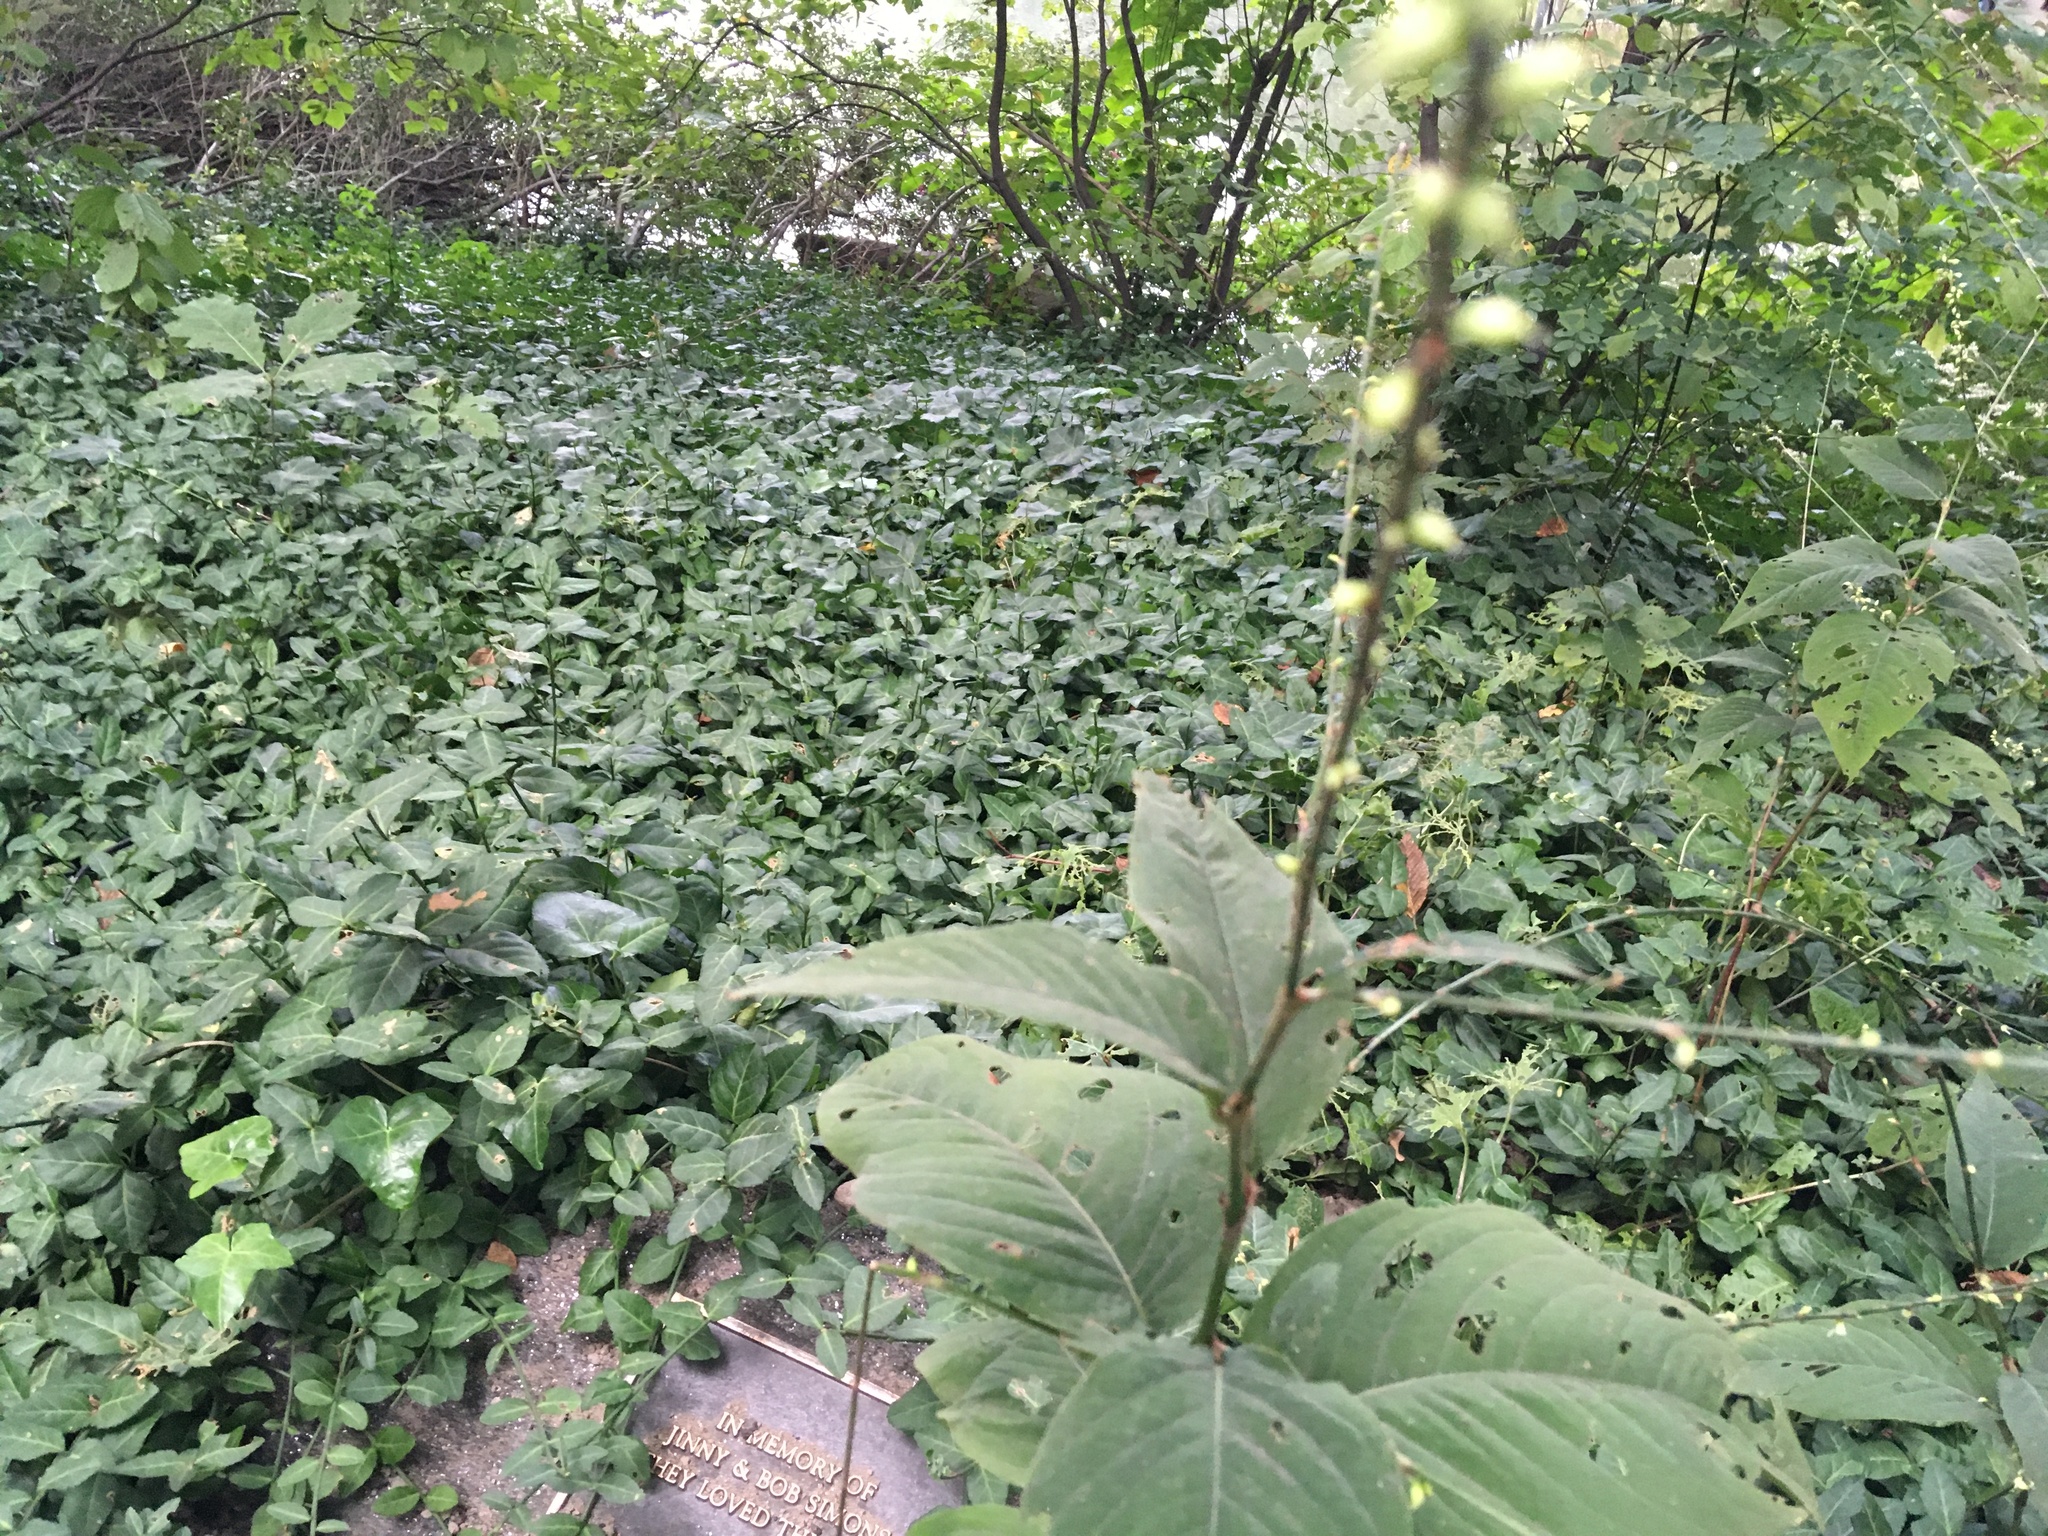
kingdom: Plantae
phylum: Tracheophyta
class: Magnoliopsida
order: Caryophyllales
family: Polygonaceae
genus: Persicaria
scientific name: Persicaria virginiana
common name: Jumpseed
